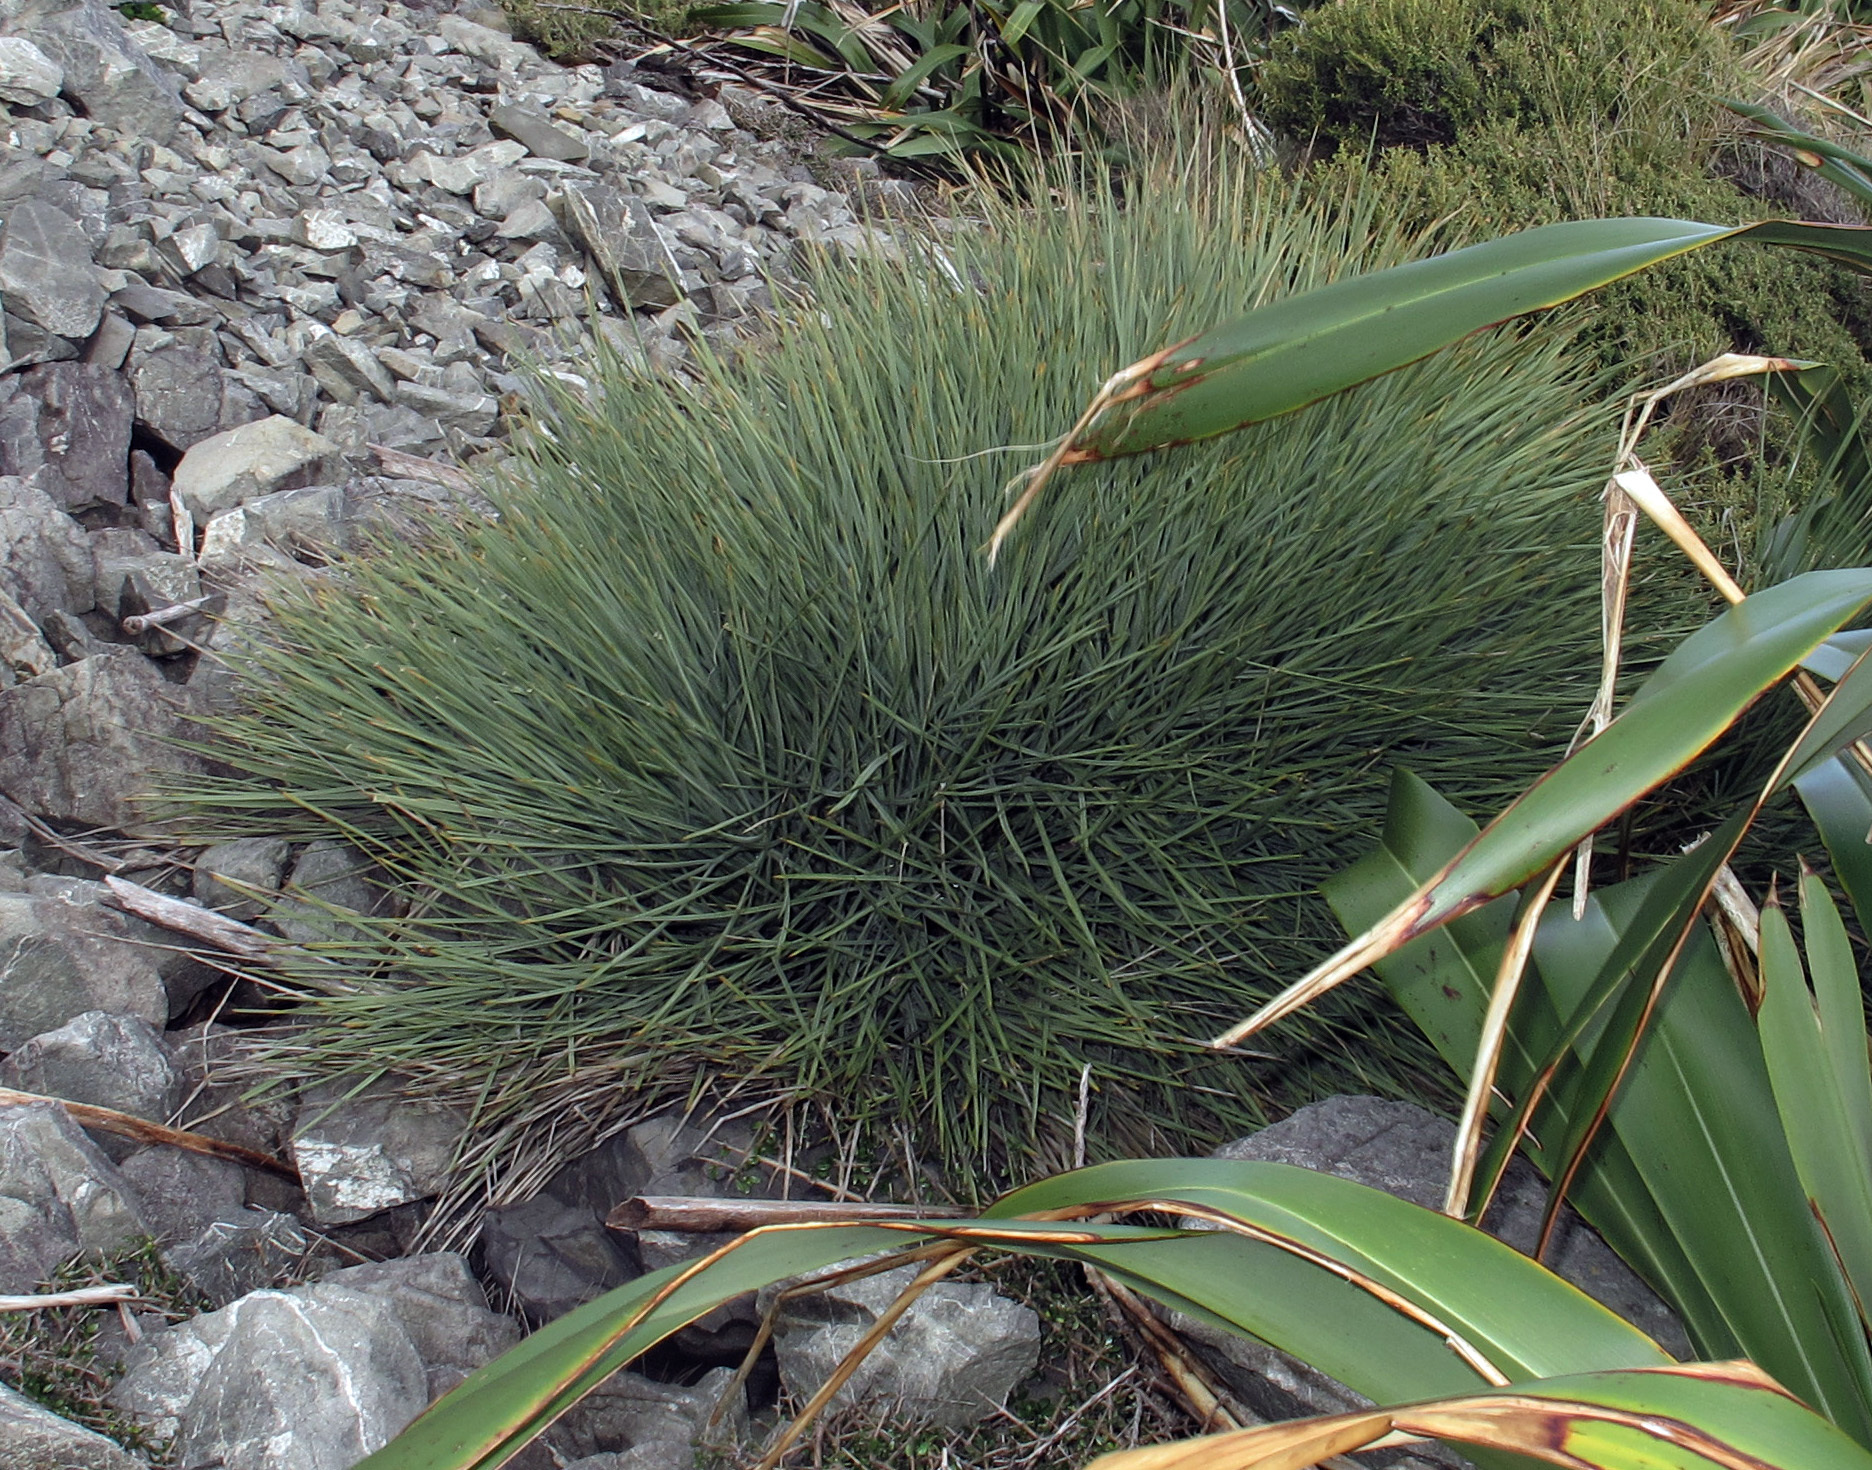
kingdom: Plantae
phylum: Tracheophyta
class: Magnoliopsida
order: Apiales
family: Apiaceae
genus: Aciphylla
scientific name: Aciphylla squarrosa
